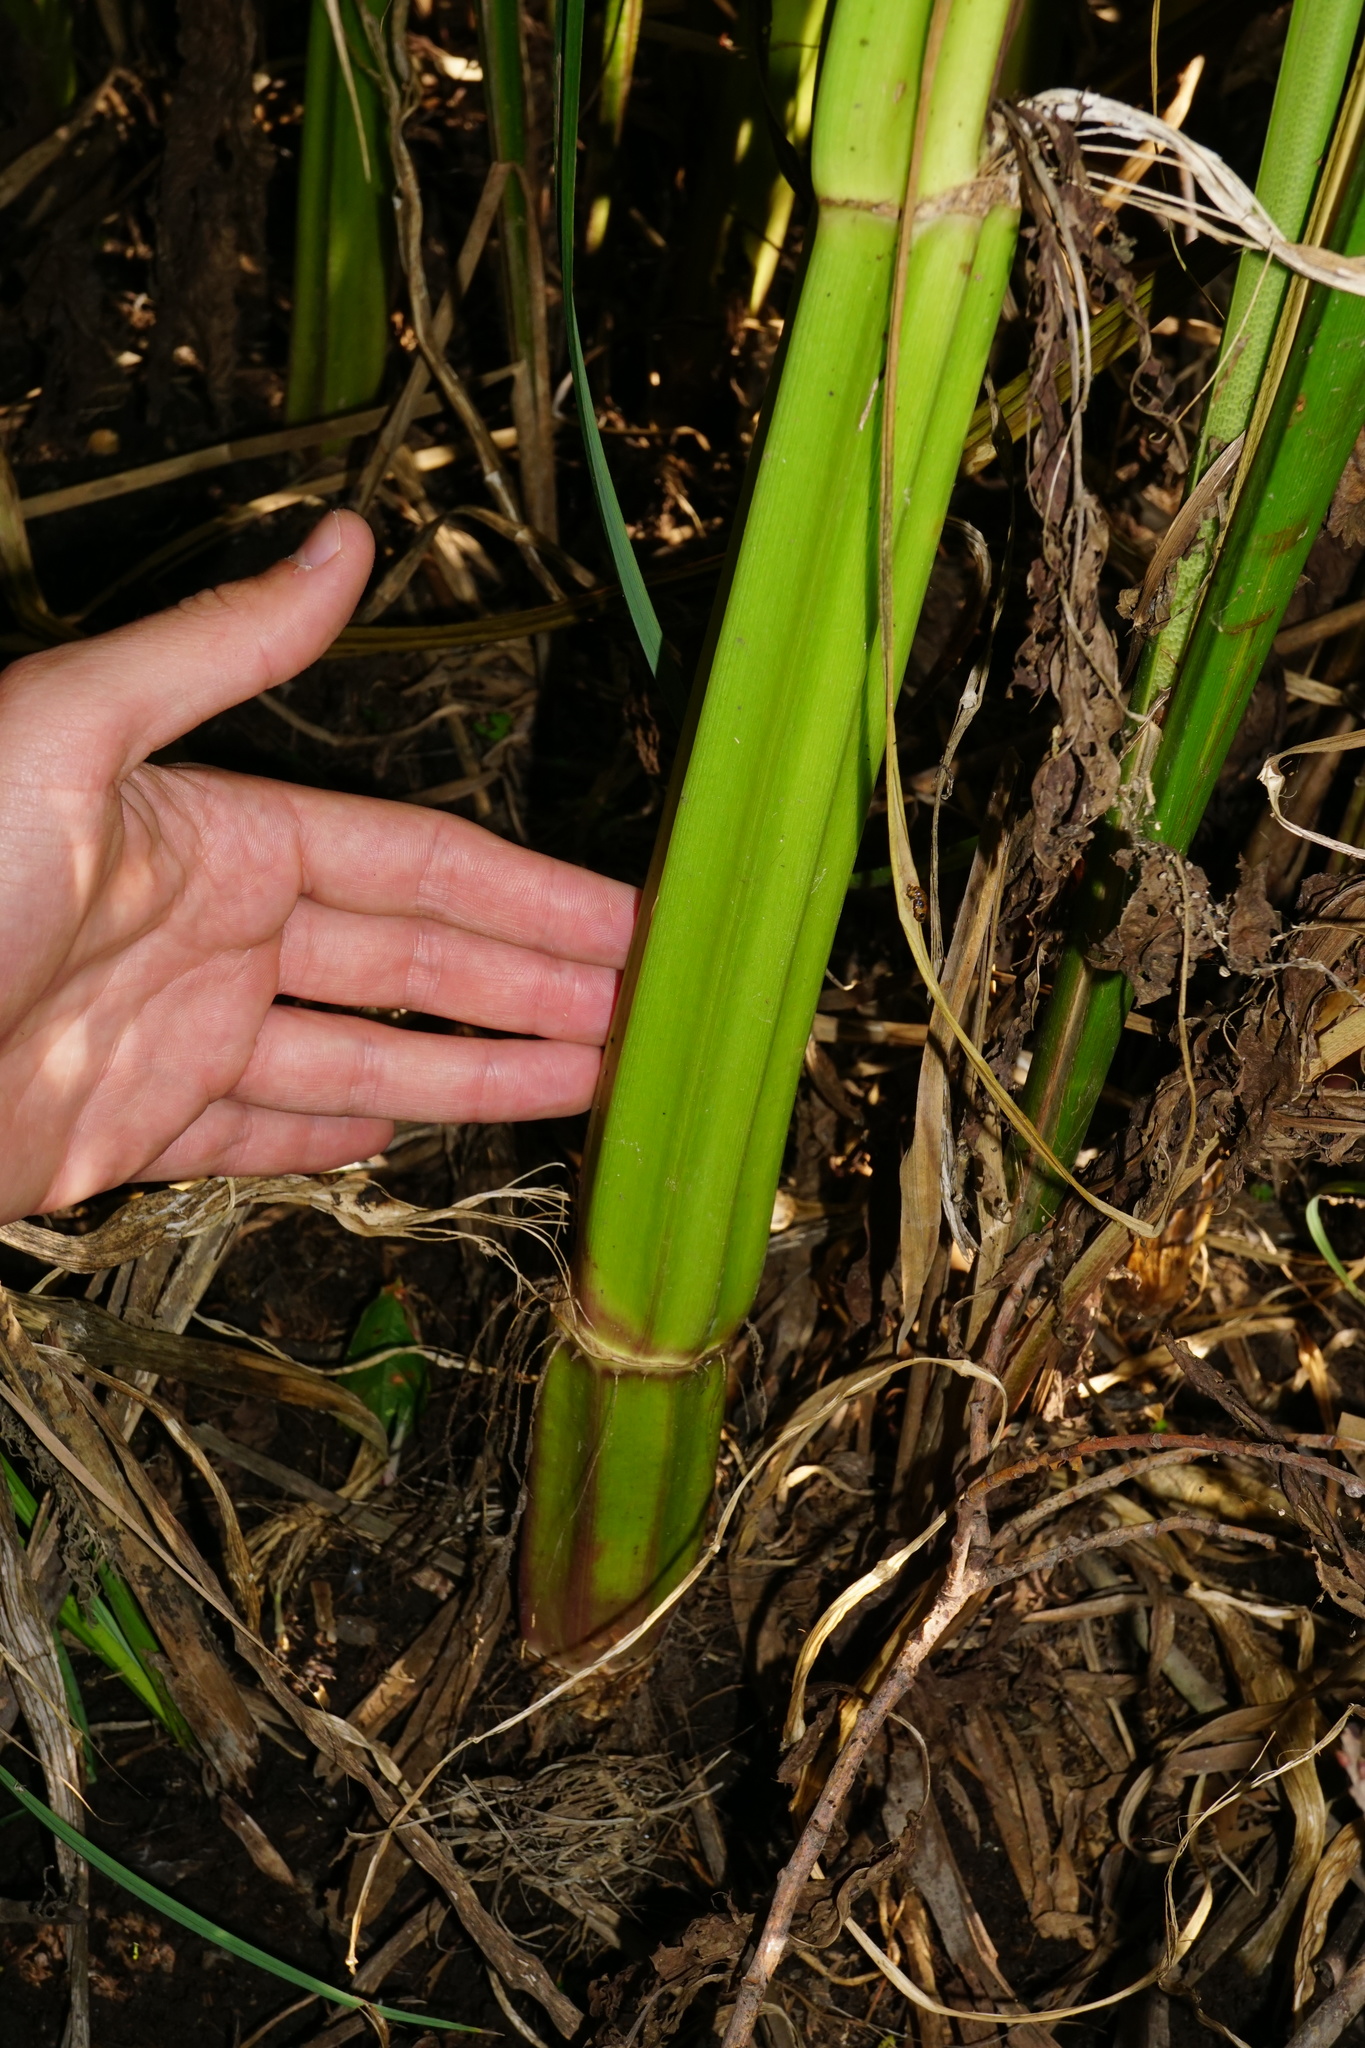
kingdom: Plantae
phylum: Tracheophyta
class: Magnoliopsida
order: Apiales
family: Apiaceae
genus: Sium
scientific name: Sium latifolium
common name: Greater water-parsnip
